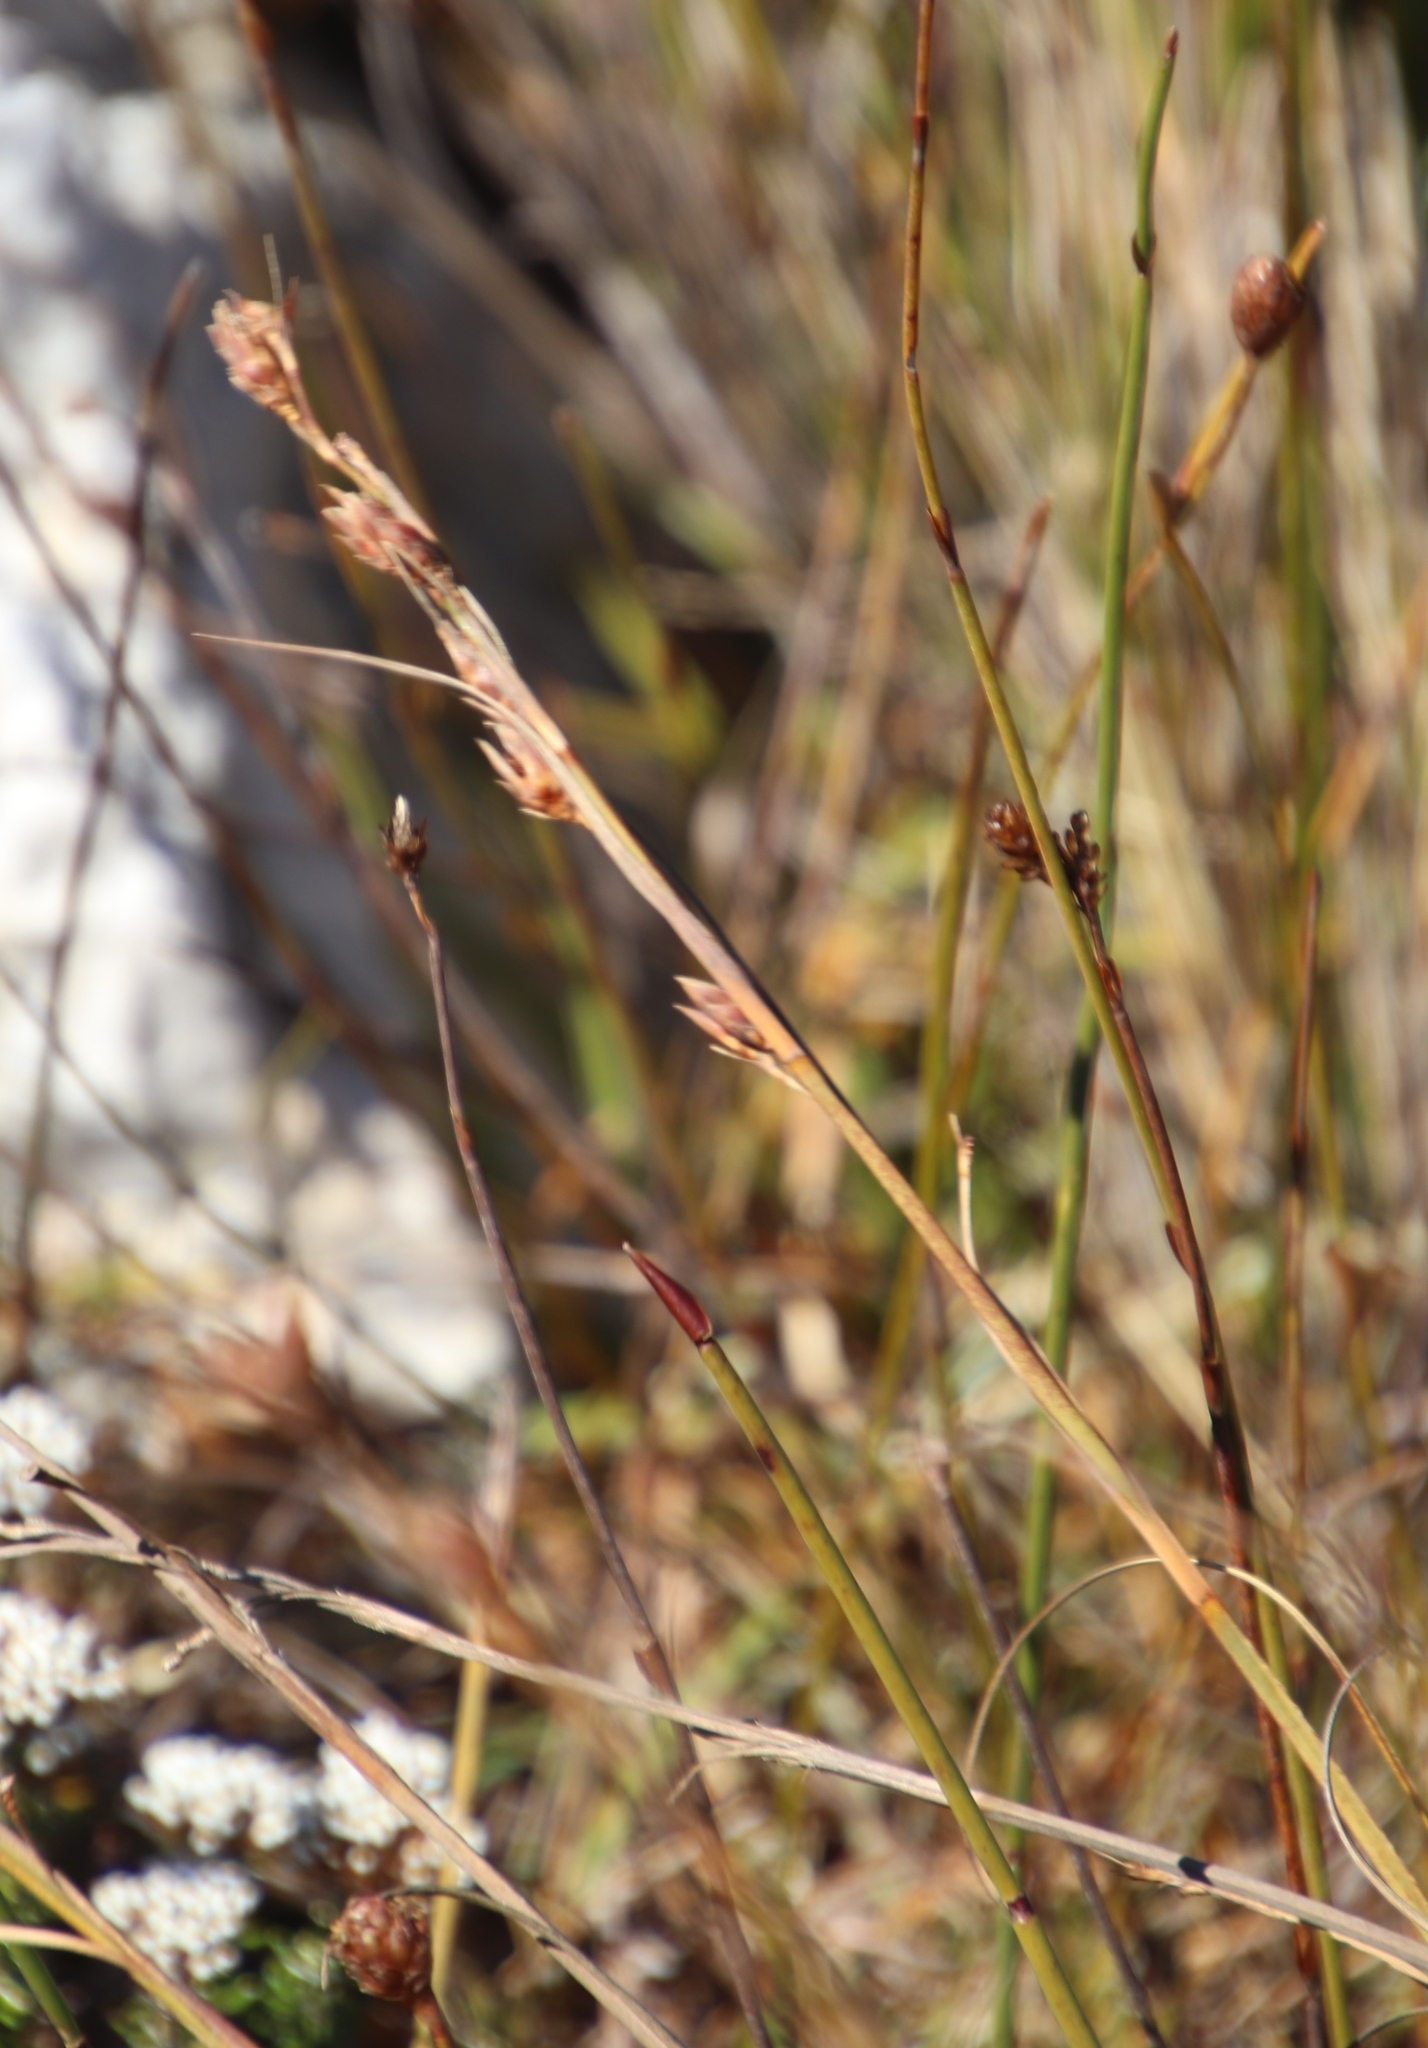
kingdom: Plantae
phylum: Tracheophyta
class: Liliopsida
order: Poales
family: Cyperaceae
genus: Tetraria
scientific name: Tetraria triangularis
